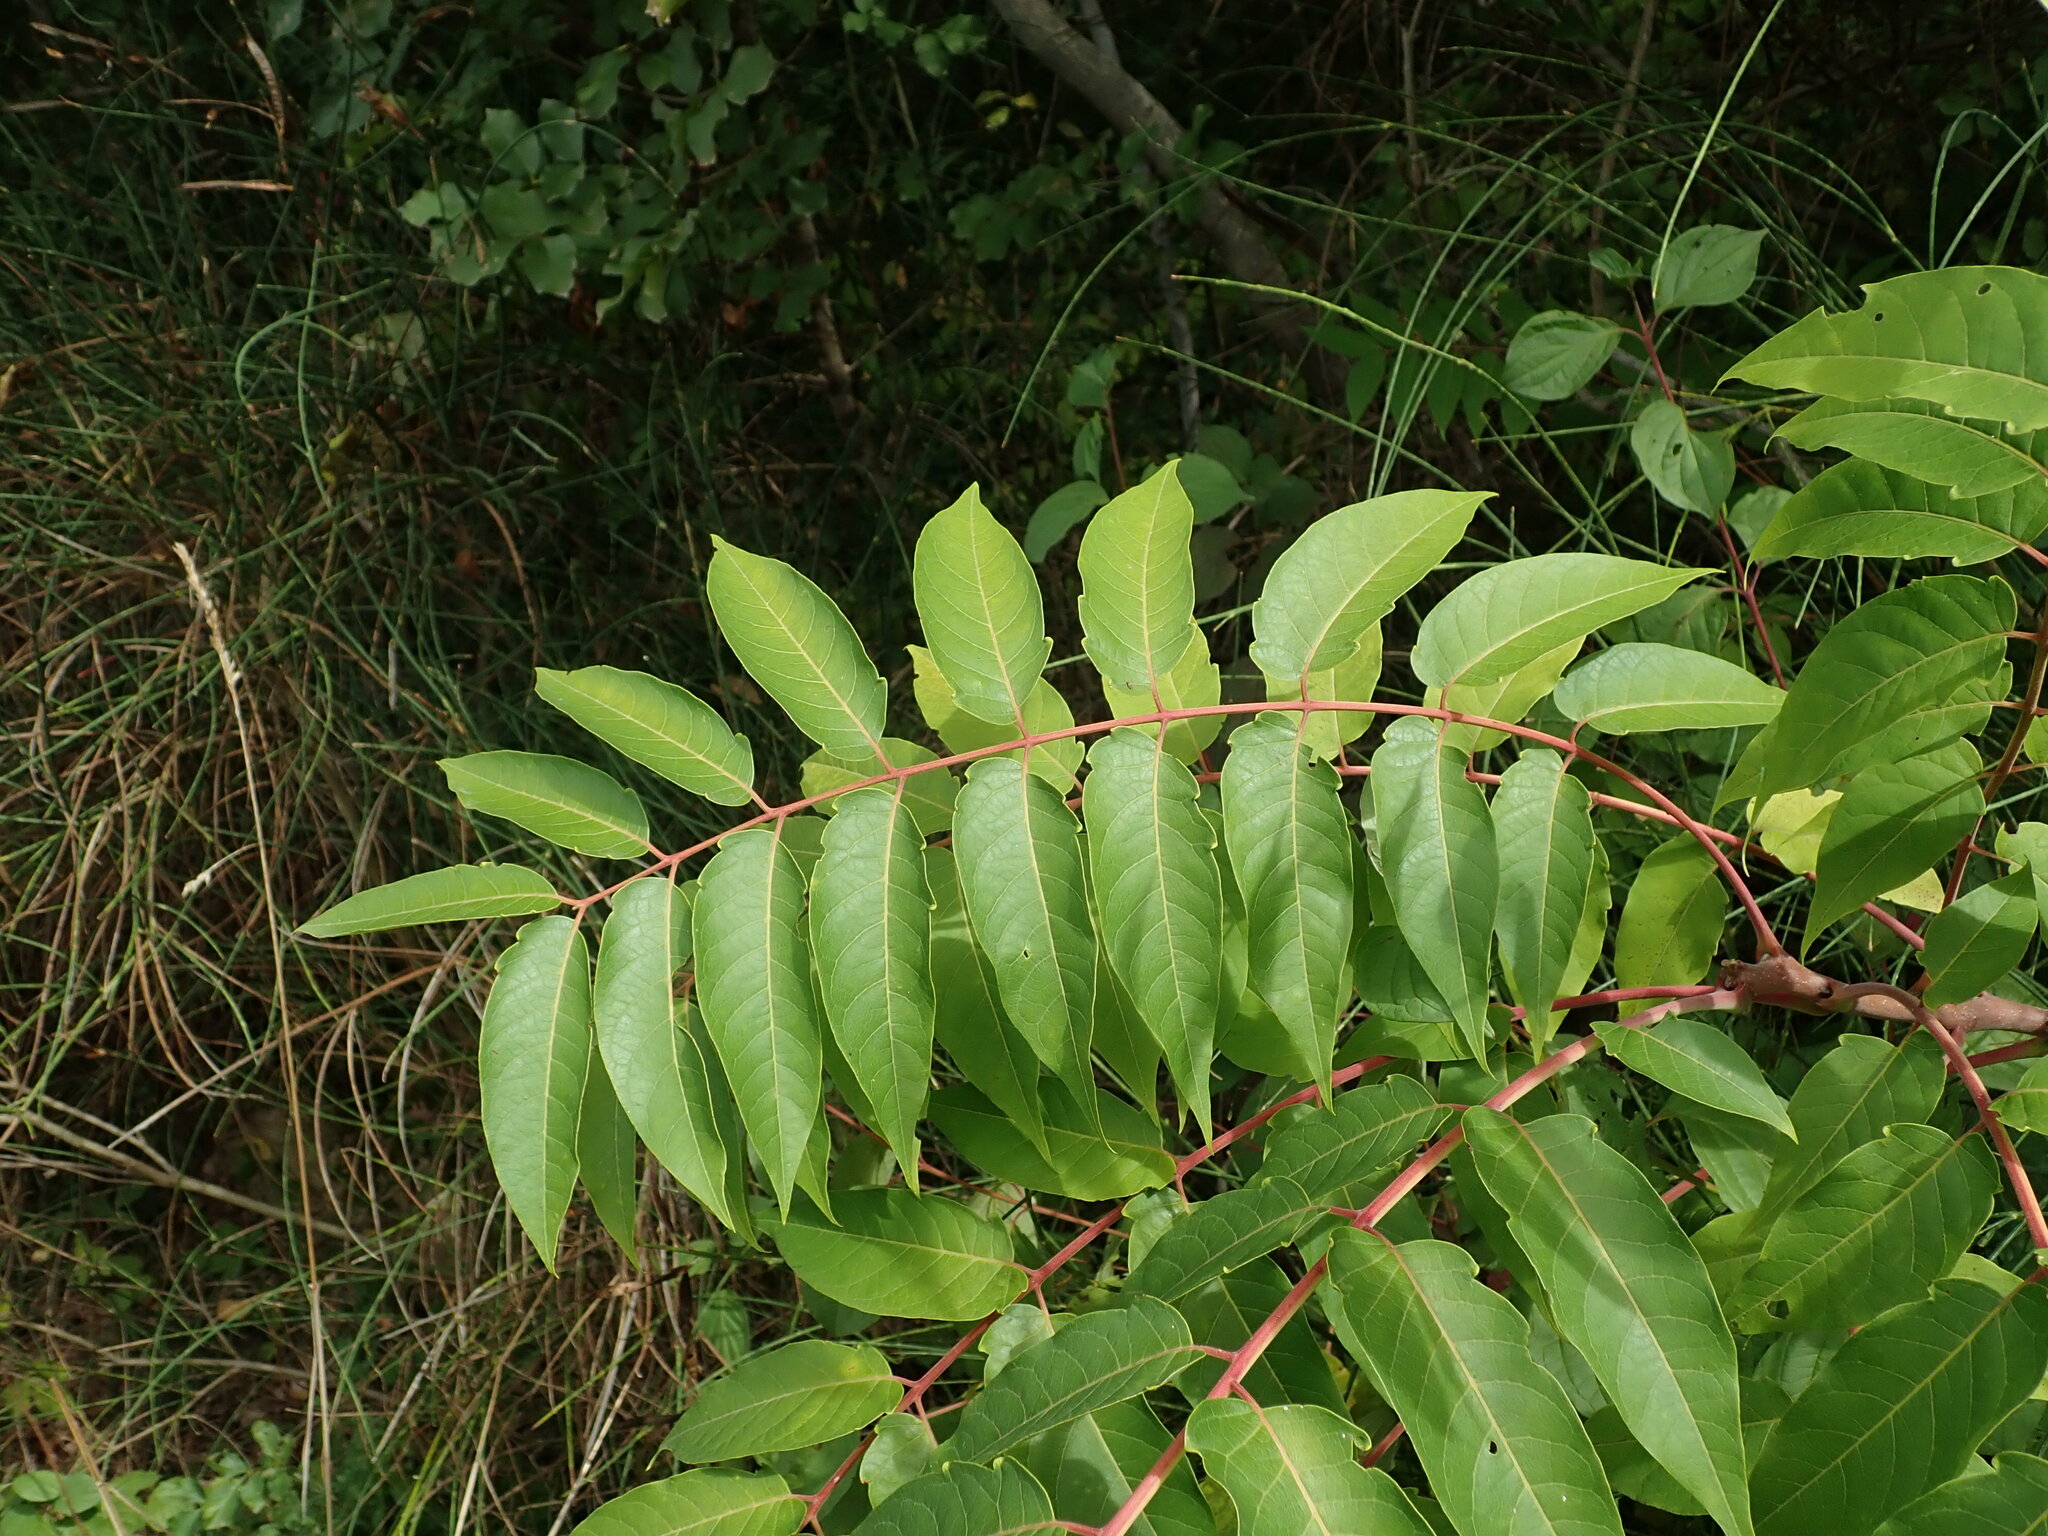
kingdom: Plantae
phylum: Tracheophyta
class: Magnoliopsida
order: Sapindales
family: Simaroubaceae
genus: Ailanthus
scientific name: Ailanthus altissima
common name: Tree-of-heaven
